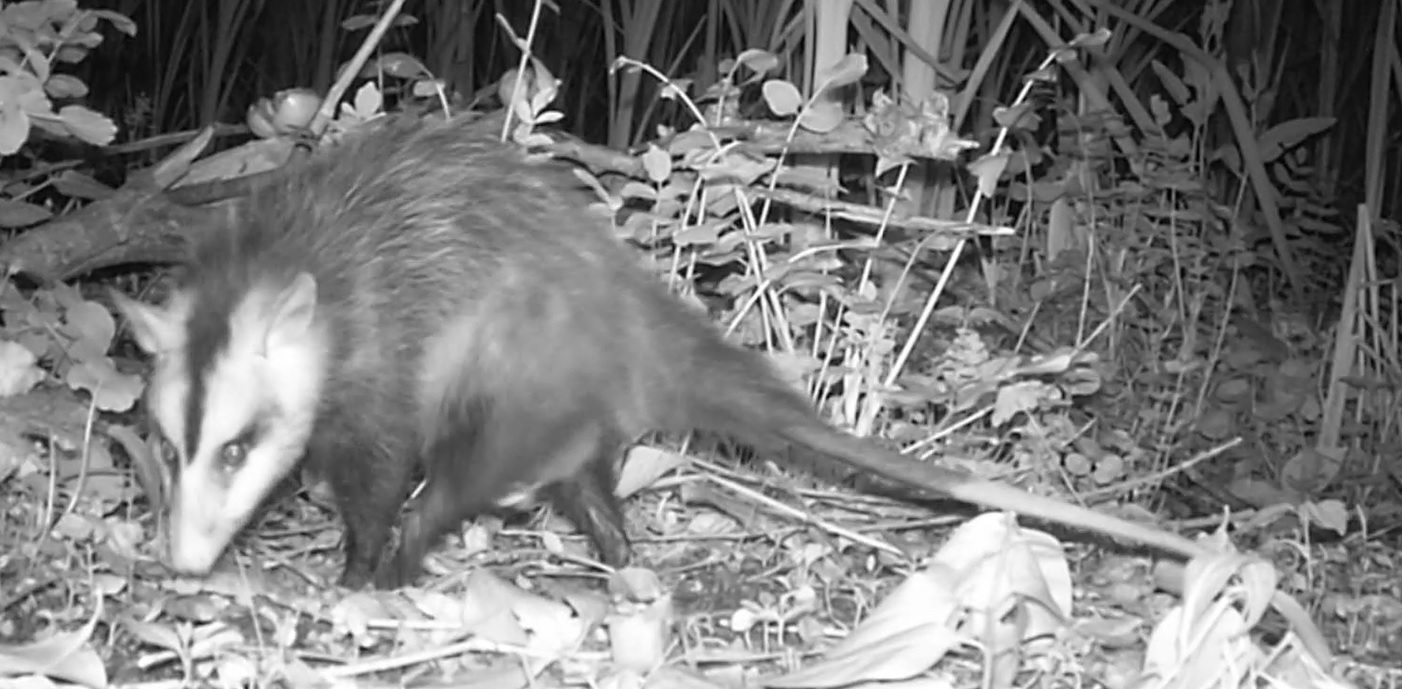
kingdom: Animalia
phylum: Chordata
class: Mammalia
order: Didelphimorphia
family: Didelphidae
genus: Didelphis
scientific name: Didelphis albiventris
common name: White-eared opossum
